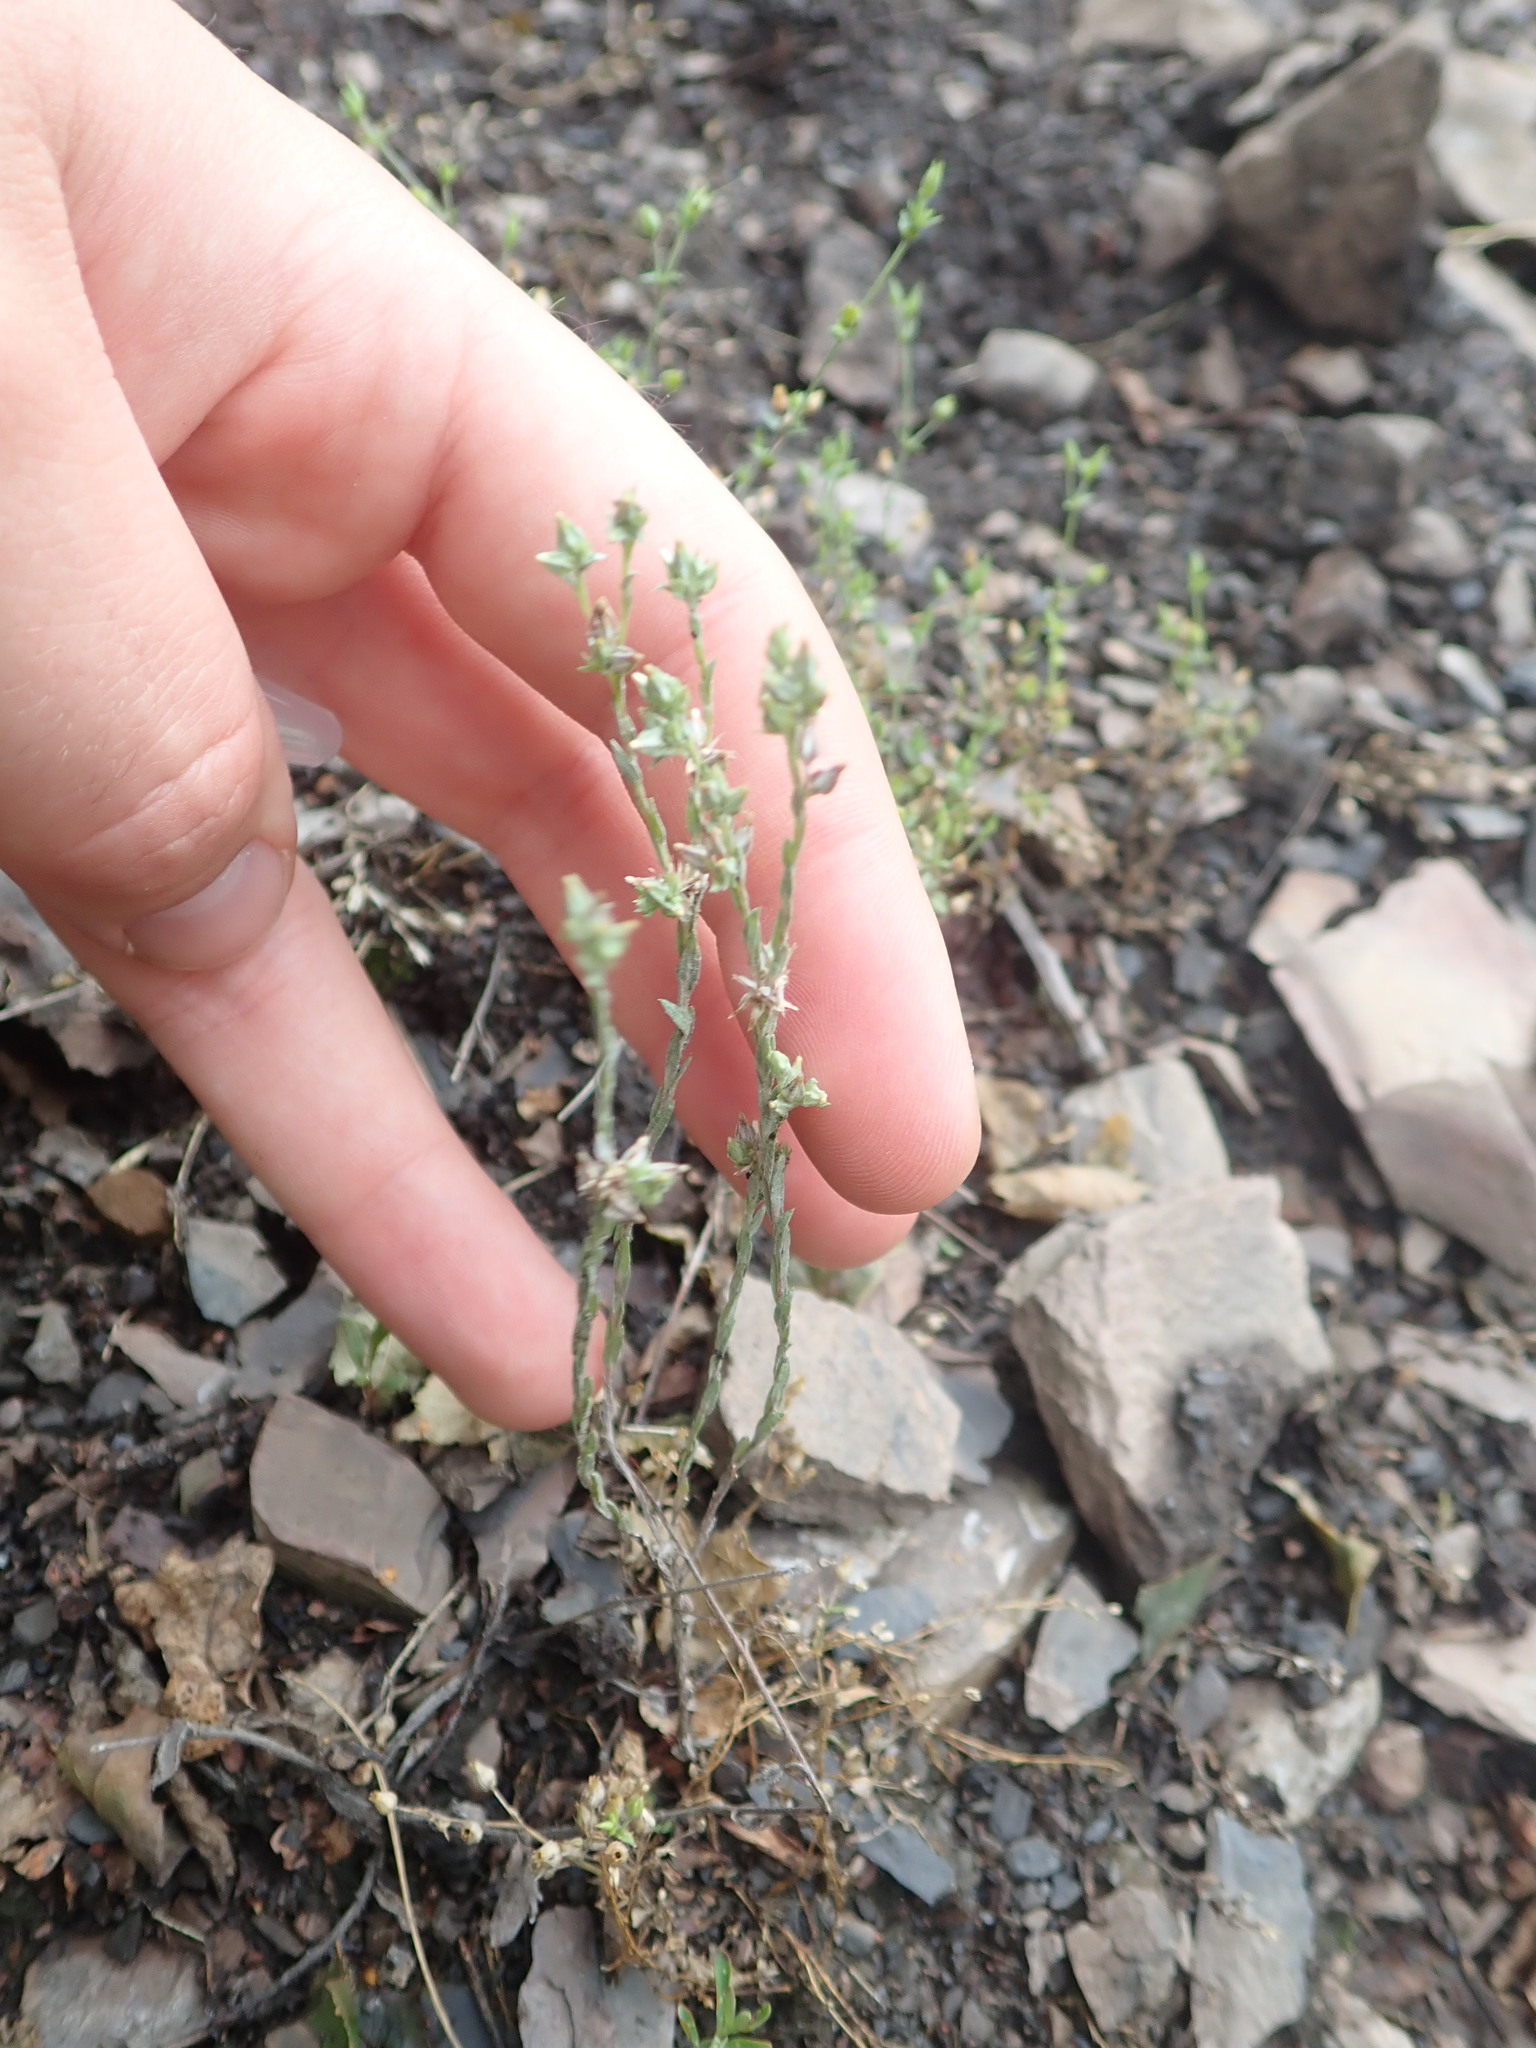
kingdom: Plantae
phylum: Tracheophyta
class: Magnoliopsida
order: Asterales
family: Asteraceae
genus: Logfia
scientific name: Logfia minima
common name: Little cottonrose
